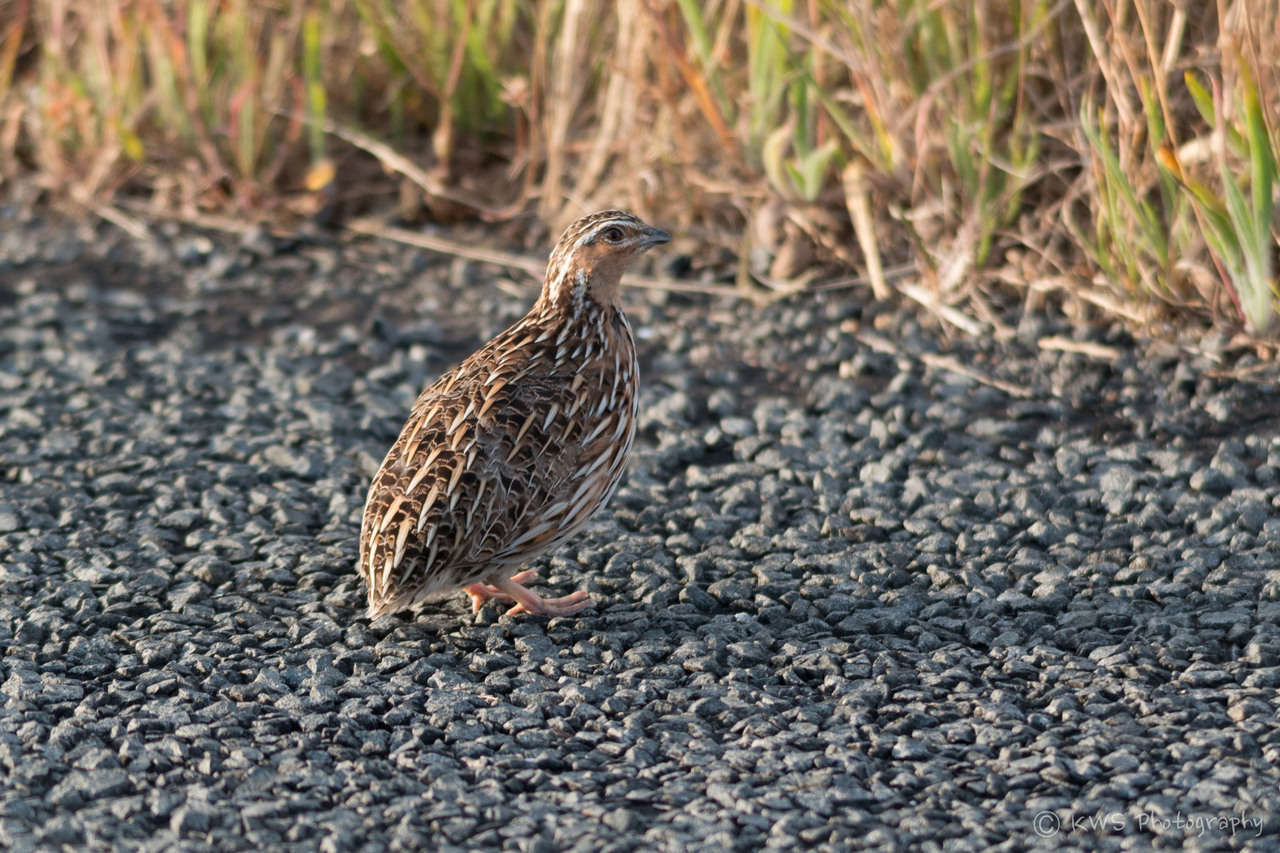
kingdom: Animalia
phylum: Chordata
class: Aves
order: Galliformes
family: Phasianidae
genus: Coturnix
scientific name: Coturnix pectoralis
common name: Stubble quail
